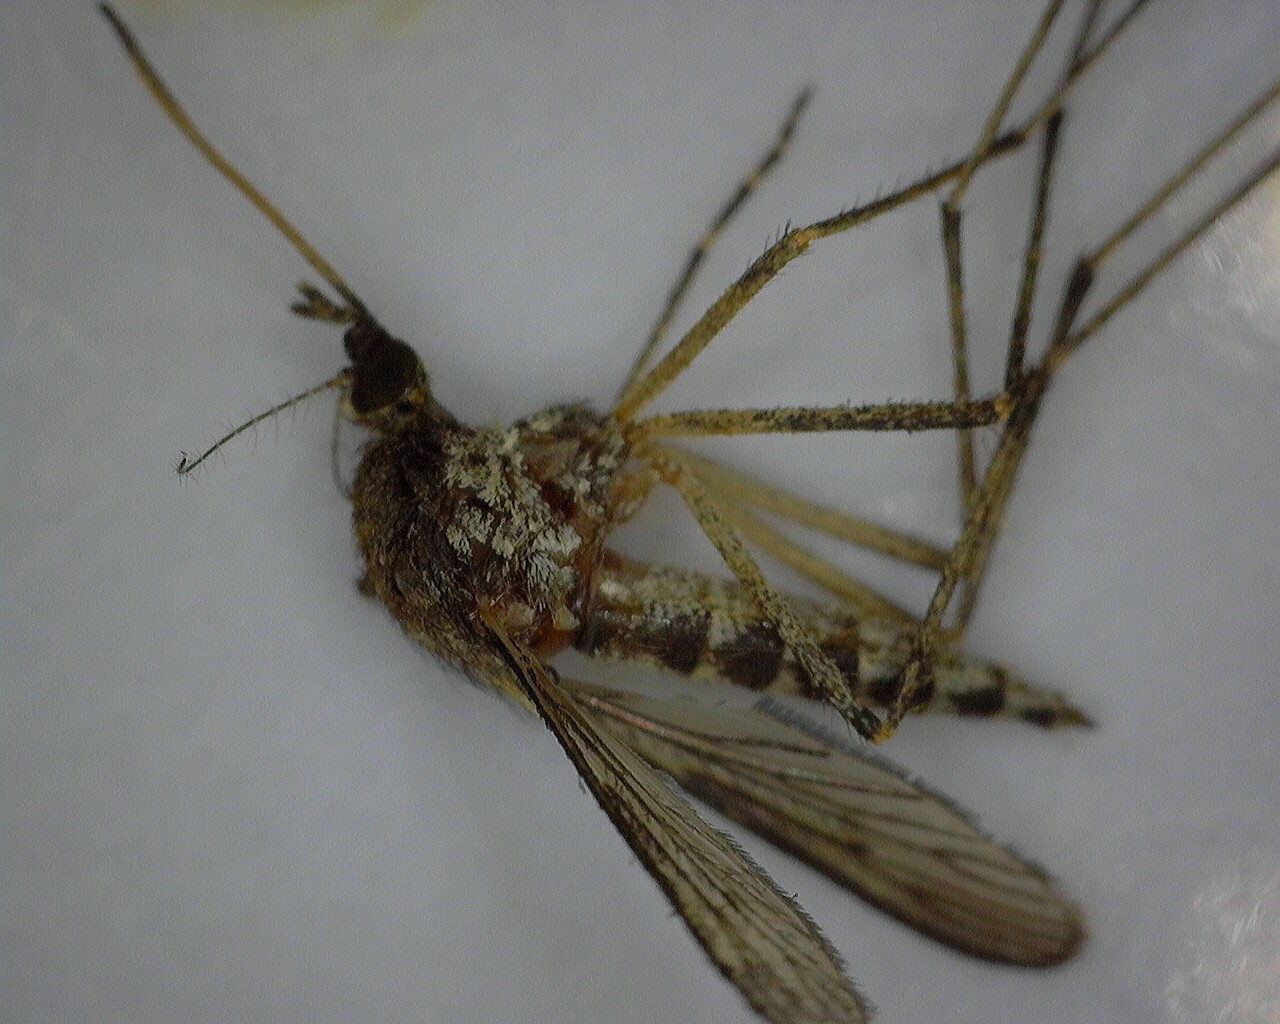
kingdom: Animalia
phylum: Arthropoda
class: Insecta
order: Diptera
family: Culicidae
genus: Aedes
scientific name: Aedes camptorhynchus
